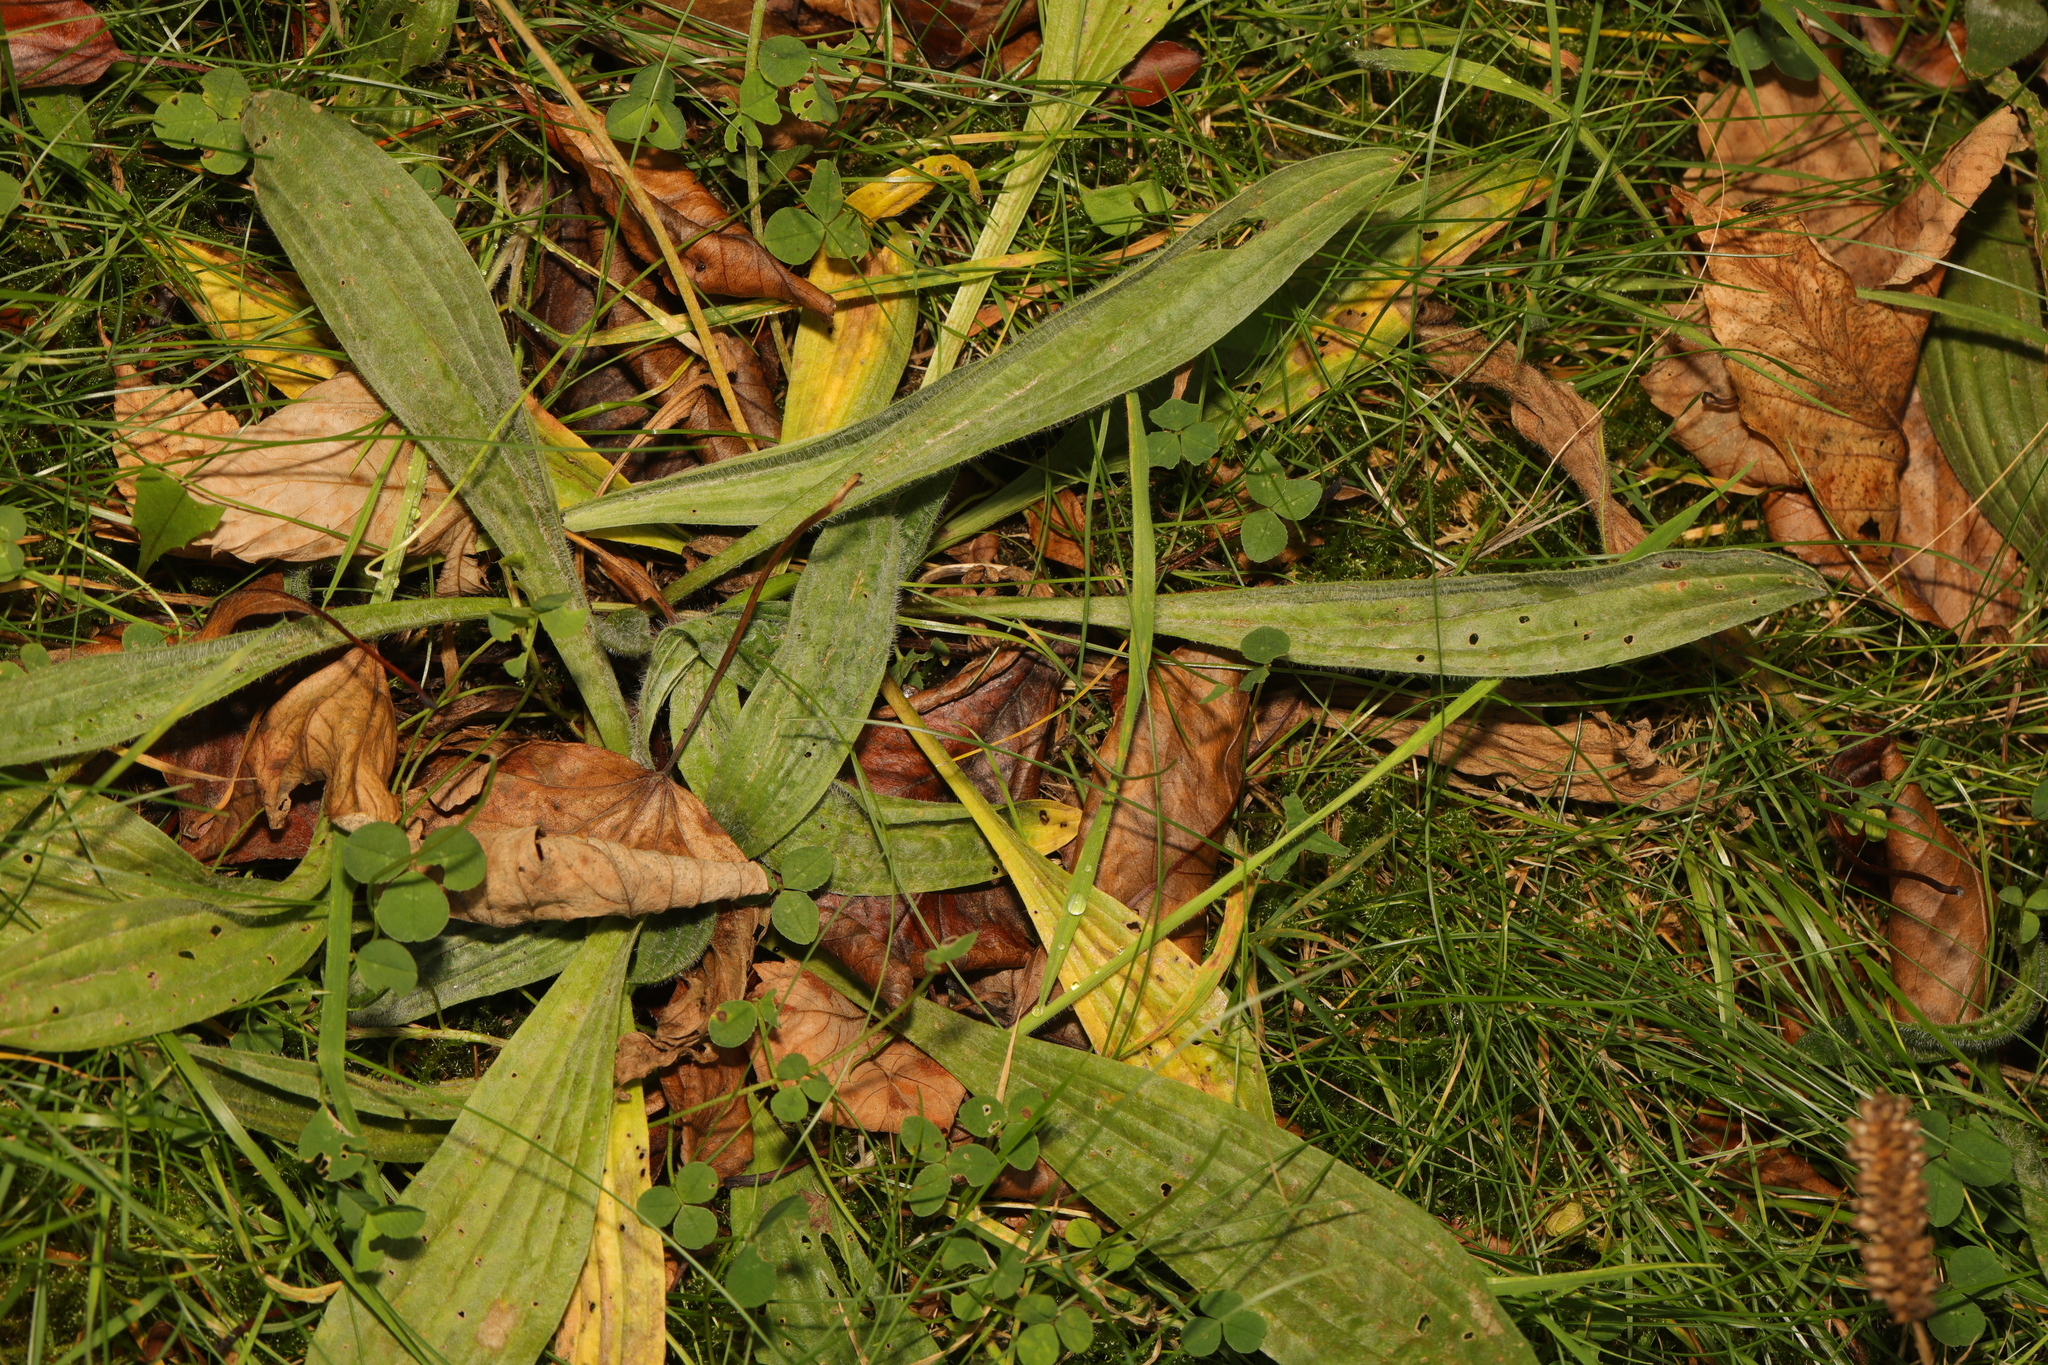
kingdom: Plantae
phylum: Tracheophyta
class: Magnoliopsida
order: Lamiales
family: Plantaginaceae
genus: Plantago
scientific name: Plantago lanceolata
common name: Ribwort plantain
